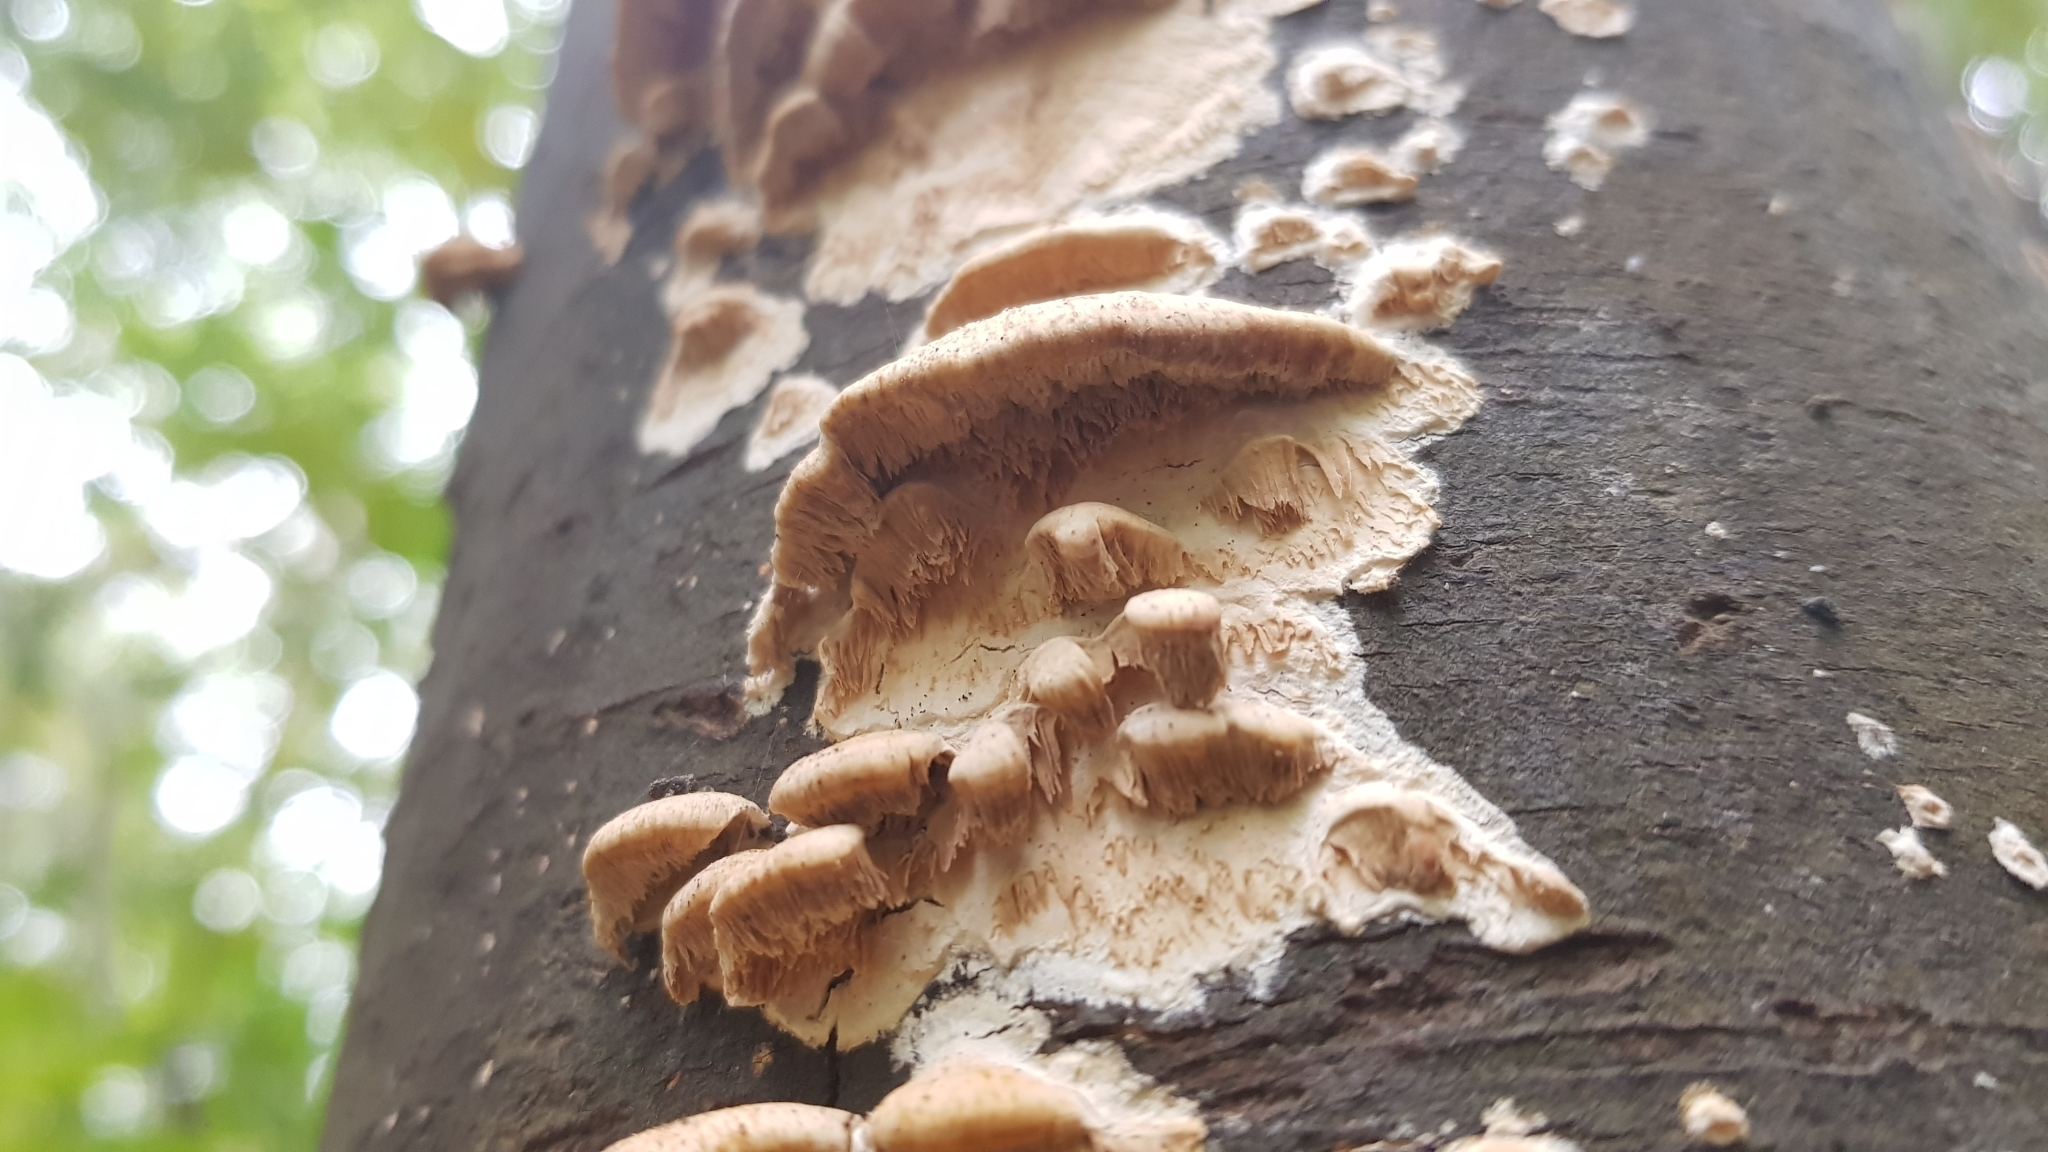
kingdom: Fungi
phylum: Basidiomycota
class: Agaricomycetes
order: Polyporales
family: Cerrenaceae
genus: Cerrena
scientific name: Cerrena zonata
